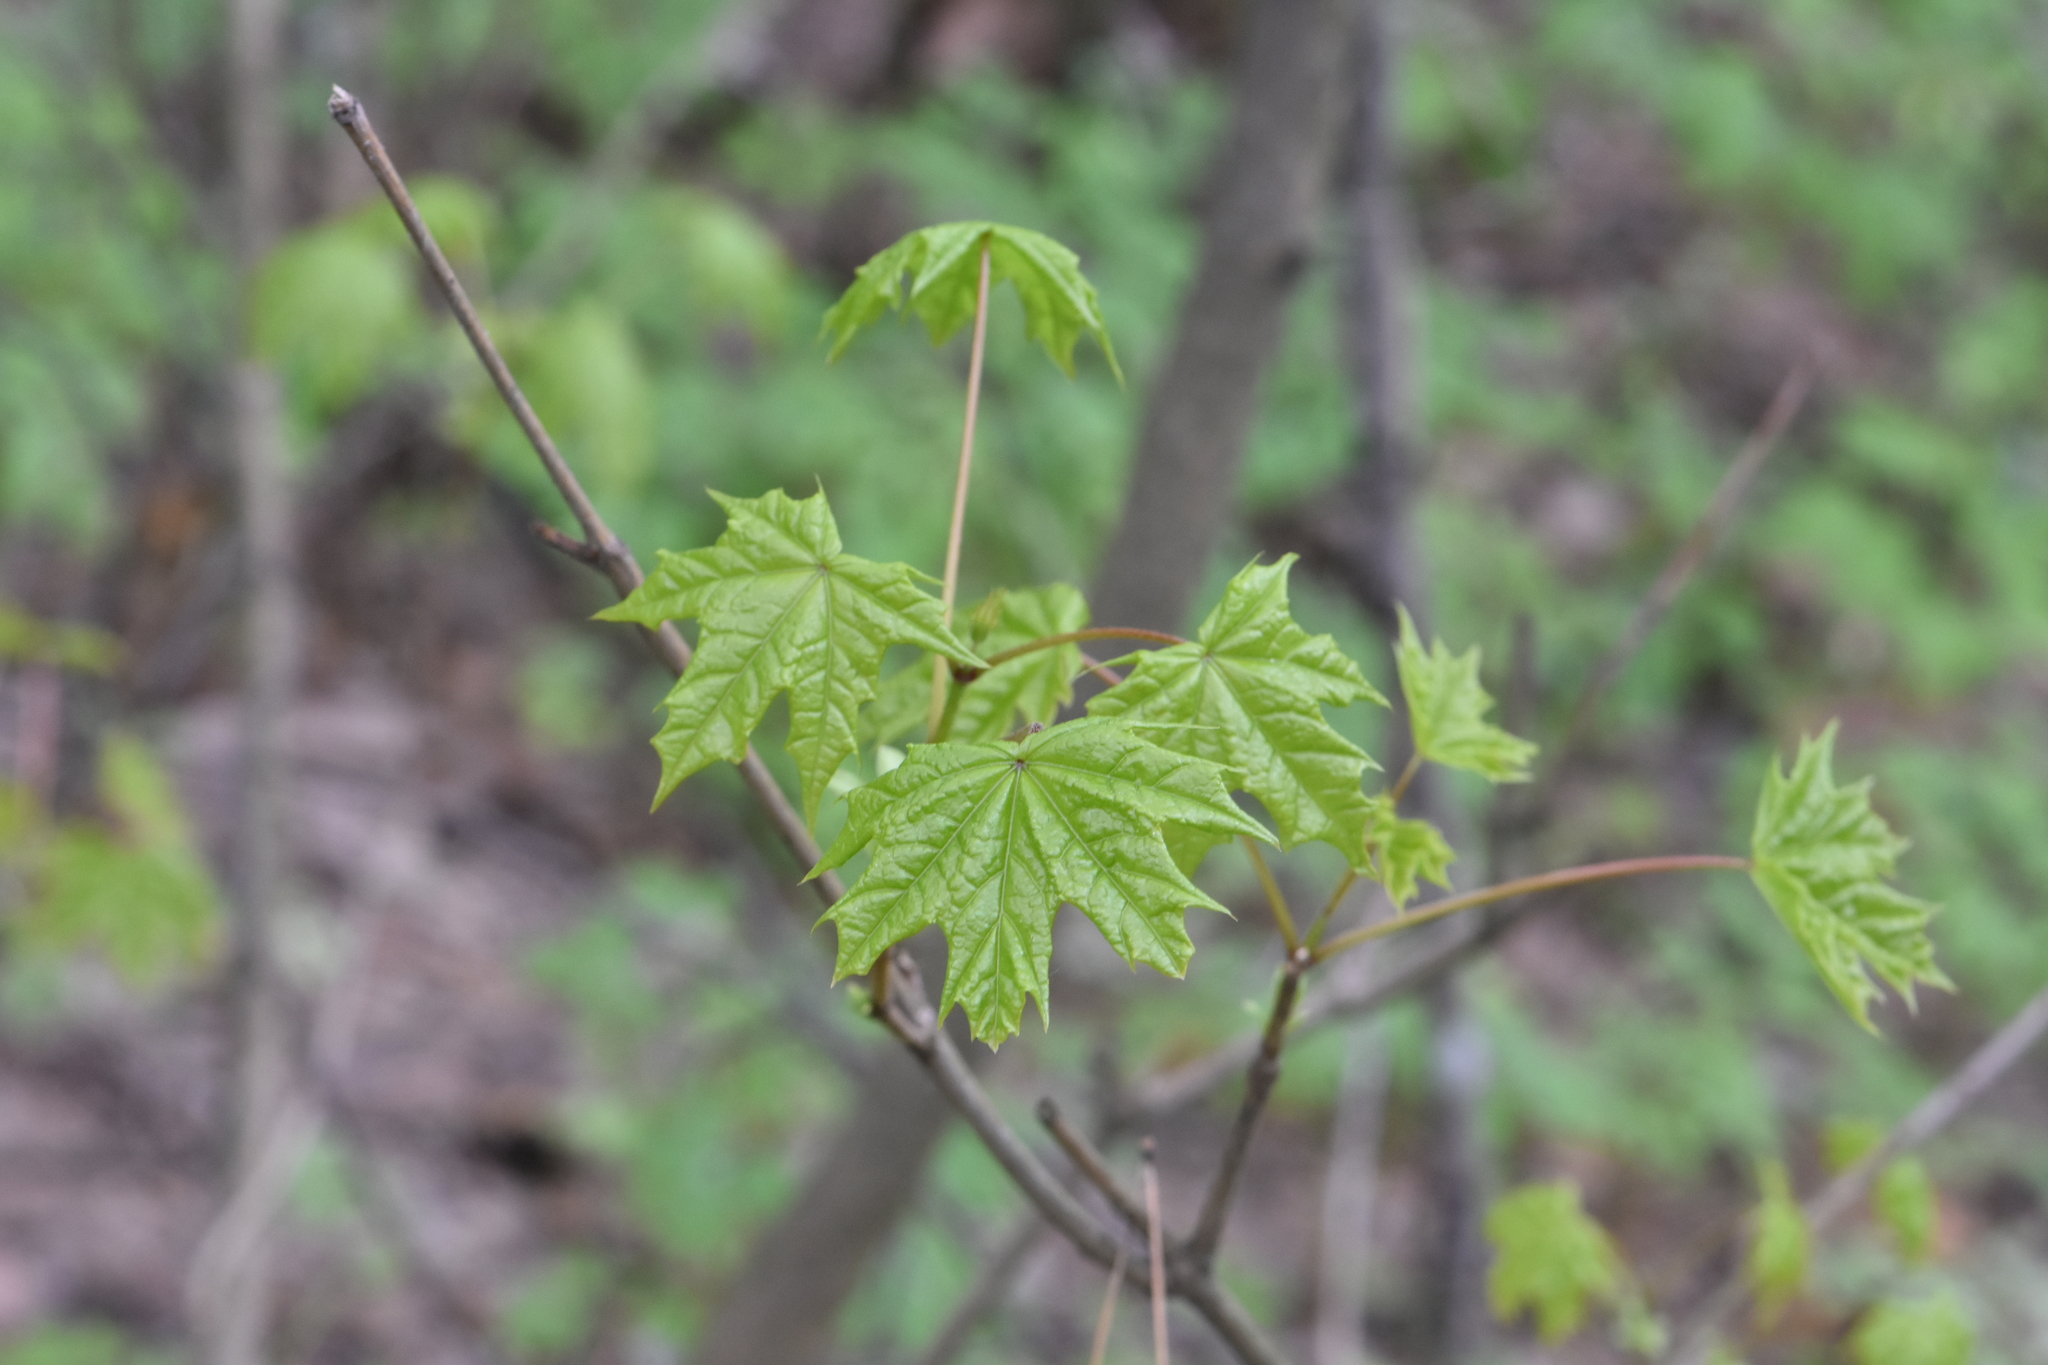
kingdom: Plantae
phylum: Tracheophyta
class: Magnoliopsida
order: Sapindales
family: Sapindaceae
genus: Acer
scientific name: Acer platanoides
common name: Norway maple
